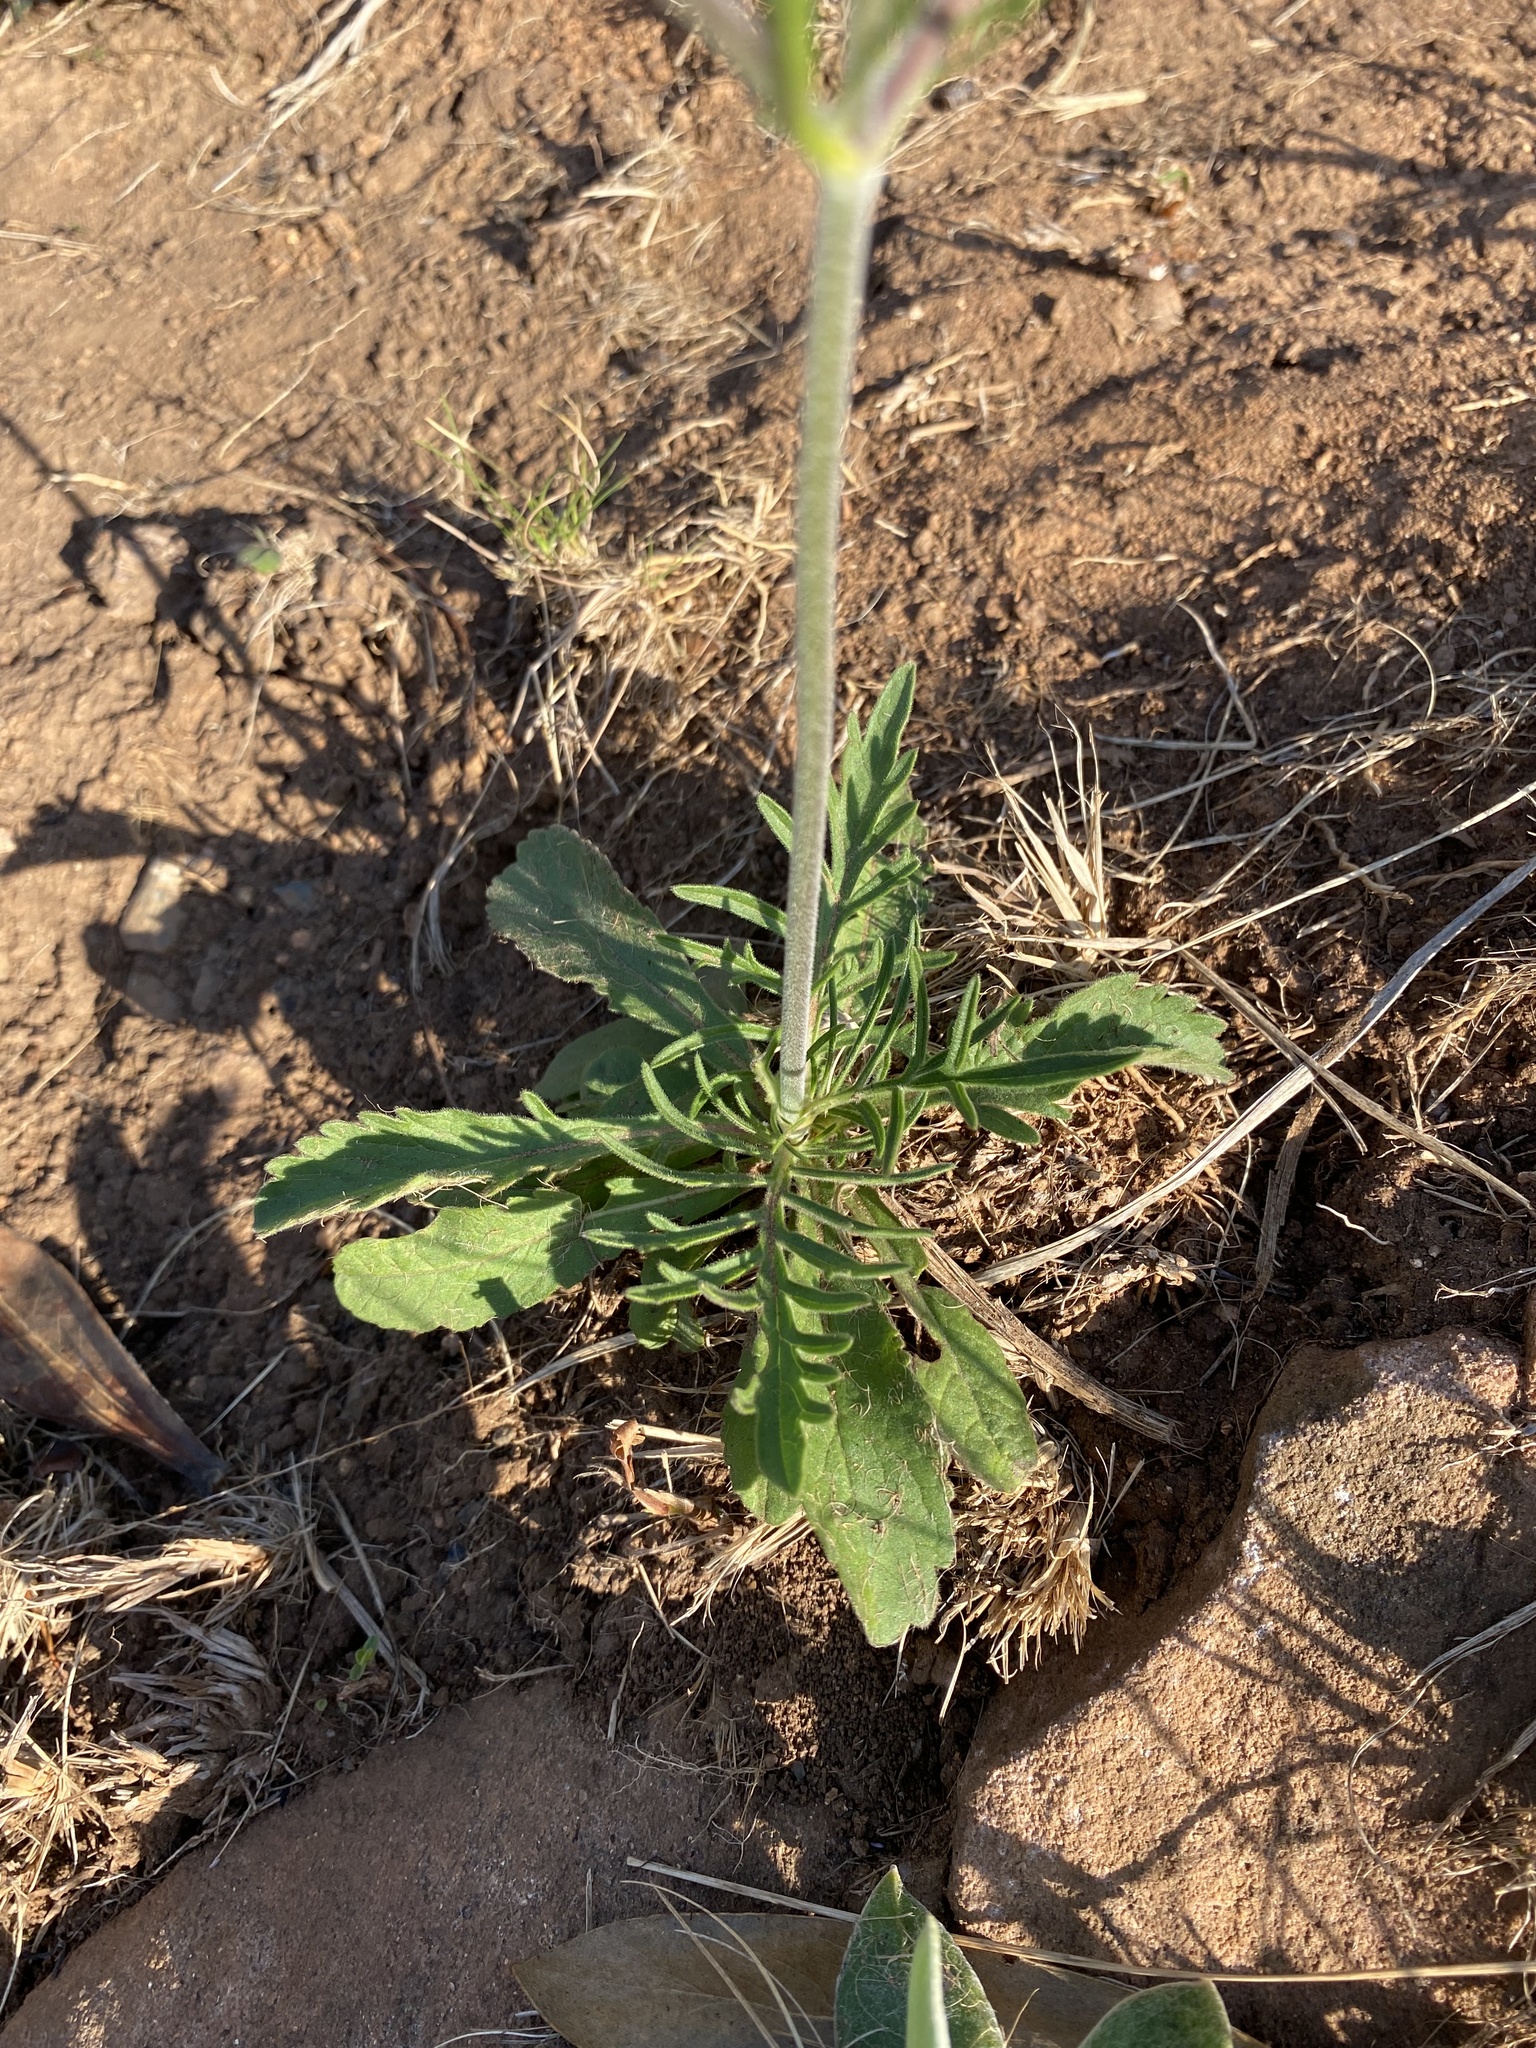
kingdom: Plantae
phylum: Tracheophyta
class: Magnoliopsida
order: Dipsacales
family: Caprifoliaceae
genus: Scabiosa
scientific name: Scabiosa columbaria
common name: Small scabious
